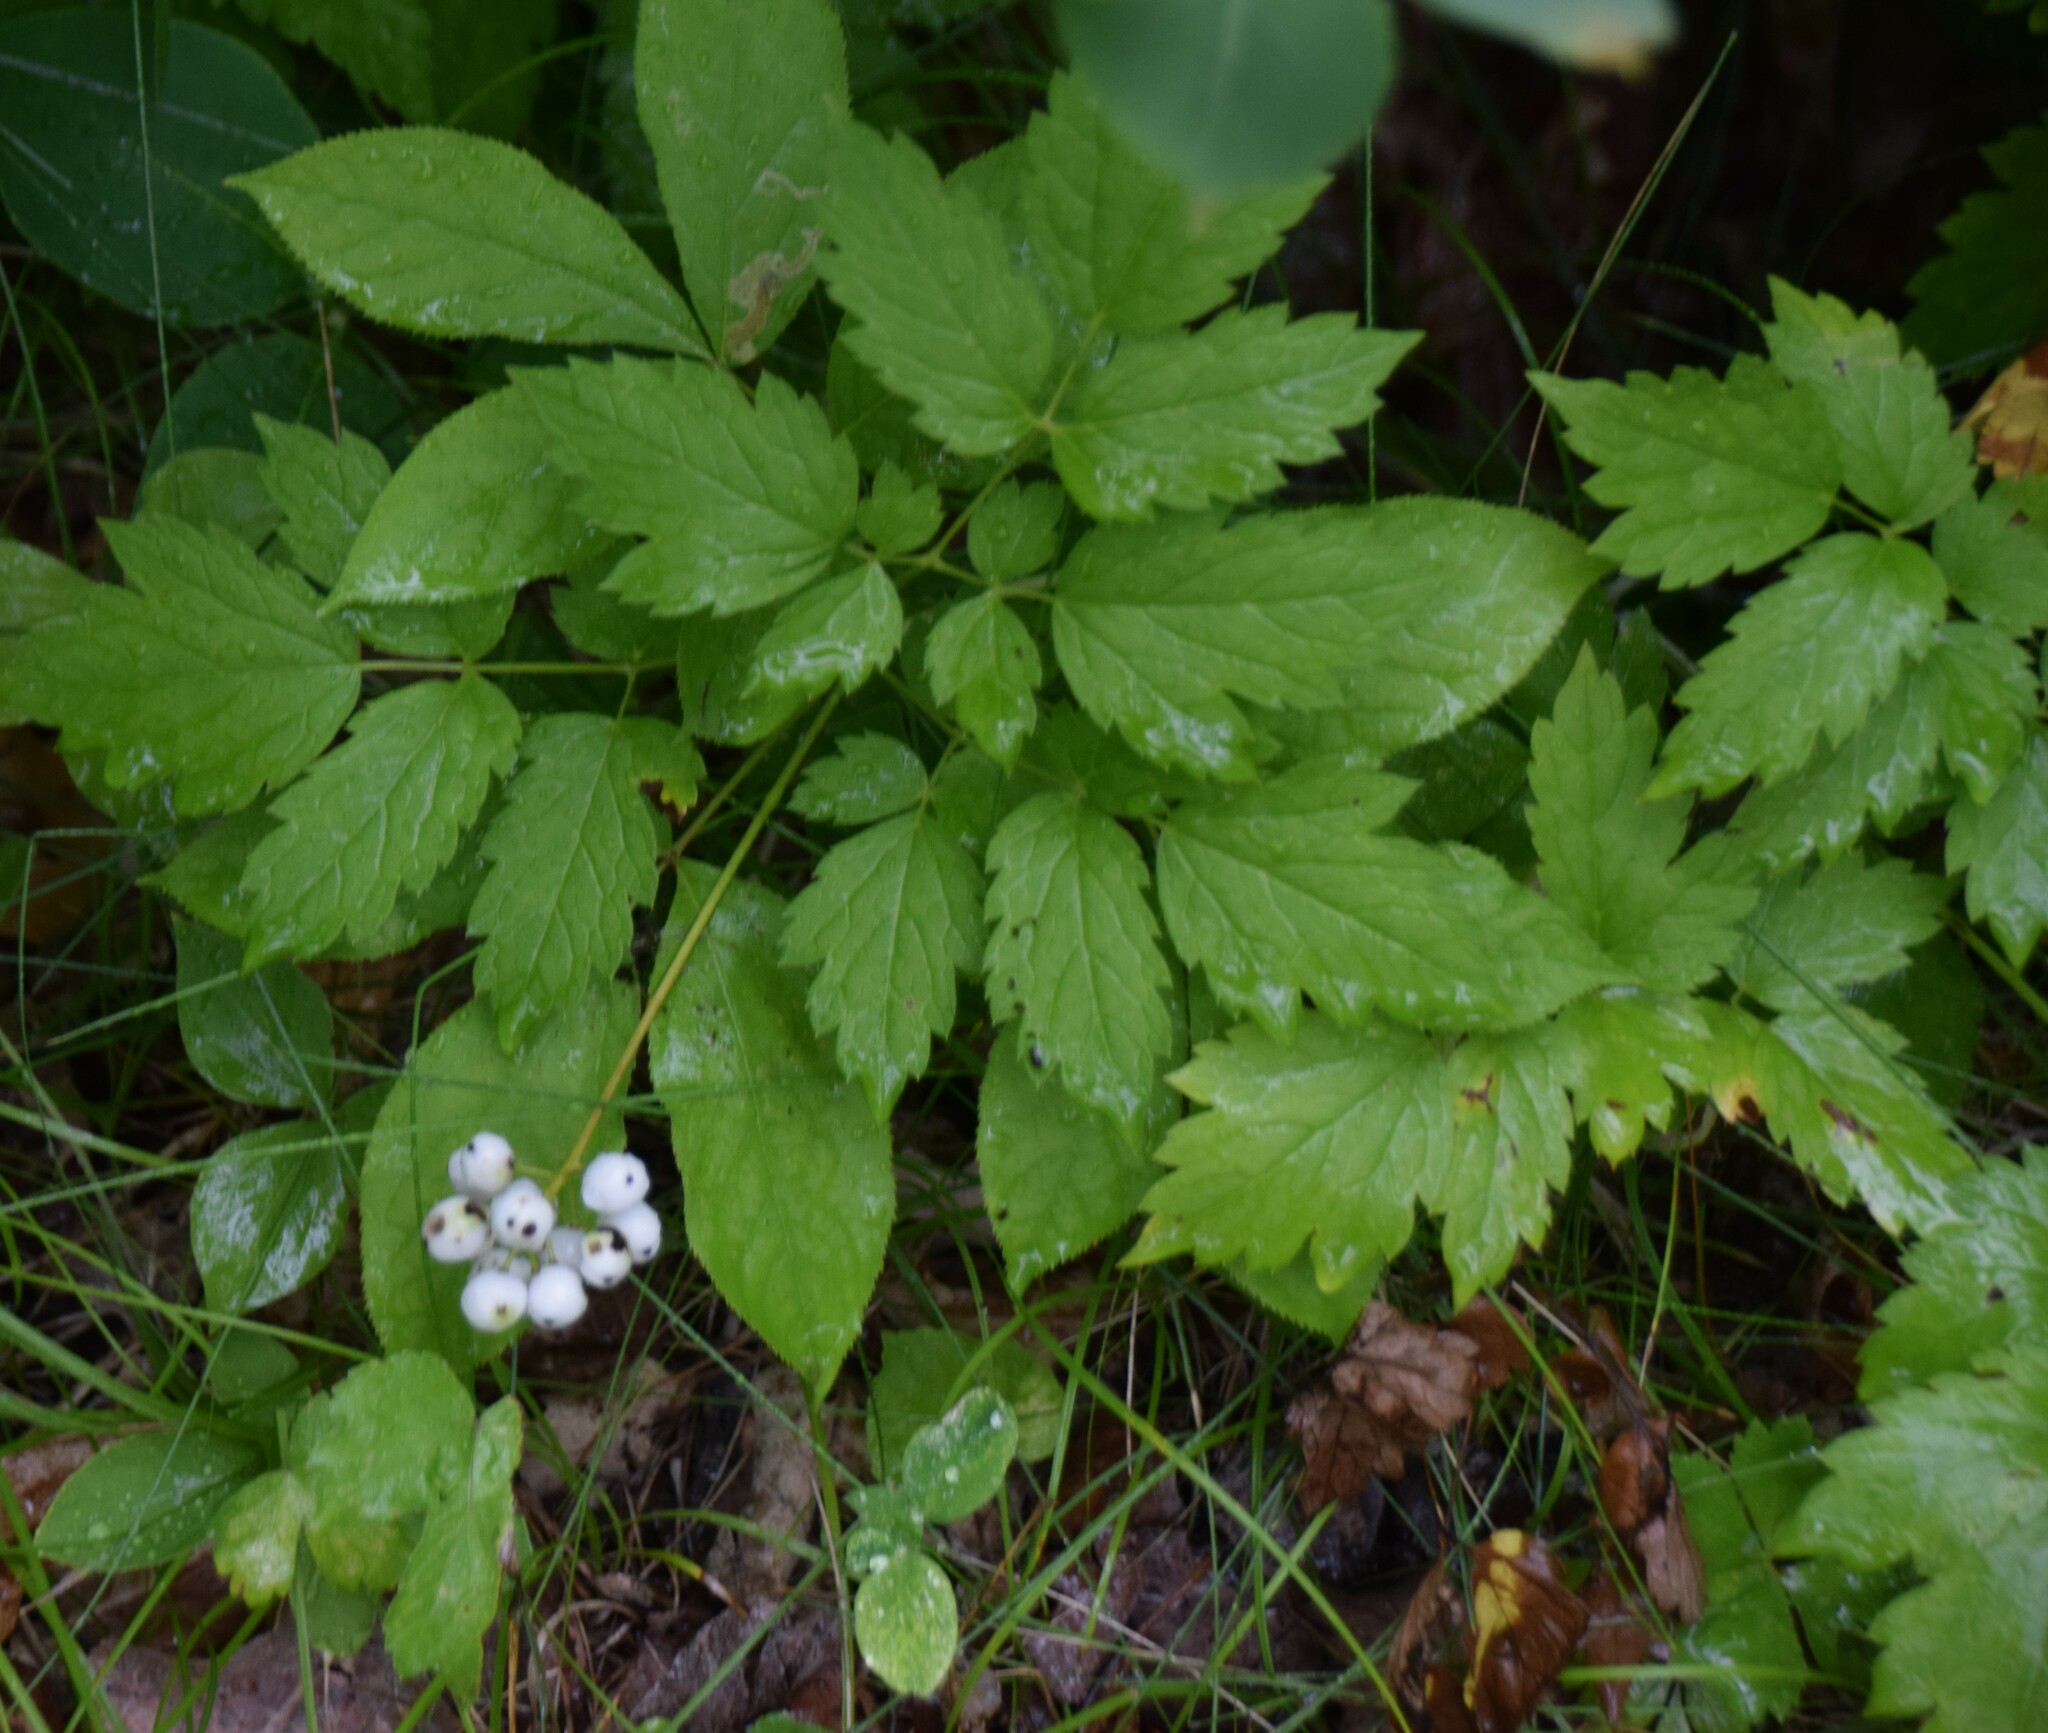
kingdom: Plantae
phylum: Tracheophyta
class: Magnoliopsida
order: Ranunculales
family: Ranunculaceae
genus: Actaea
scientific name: Actaea rubra
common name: Red baneberry
